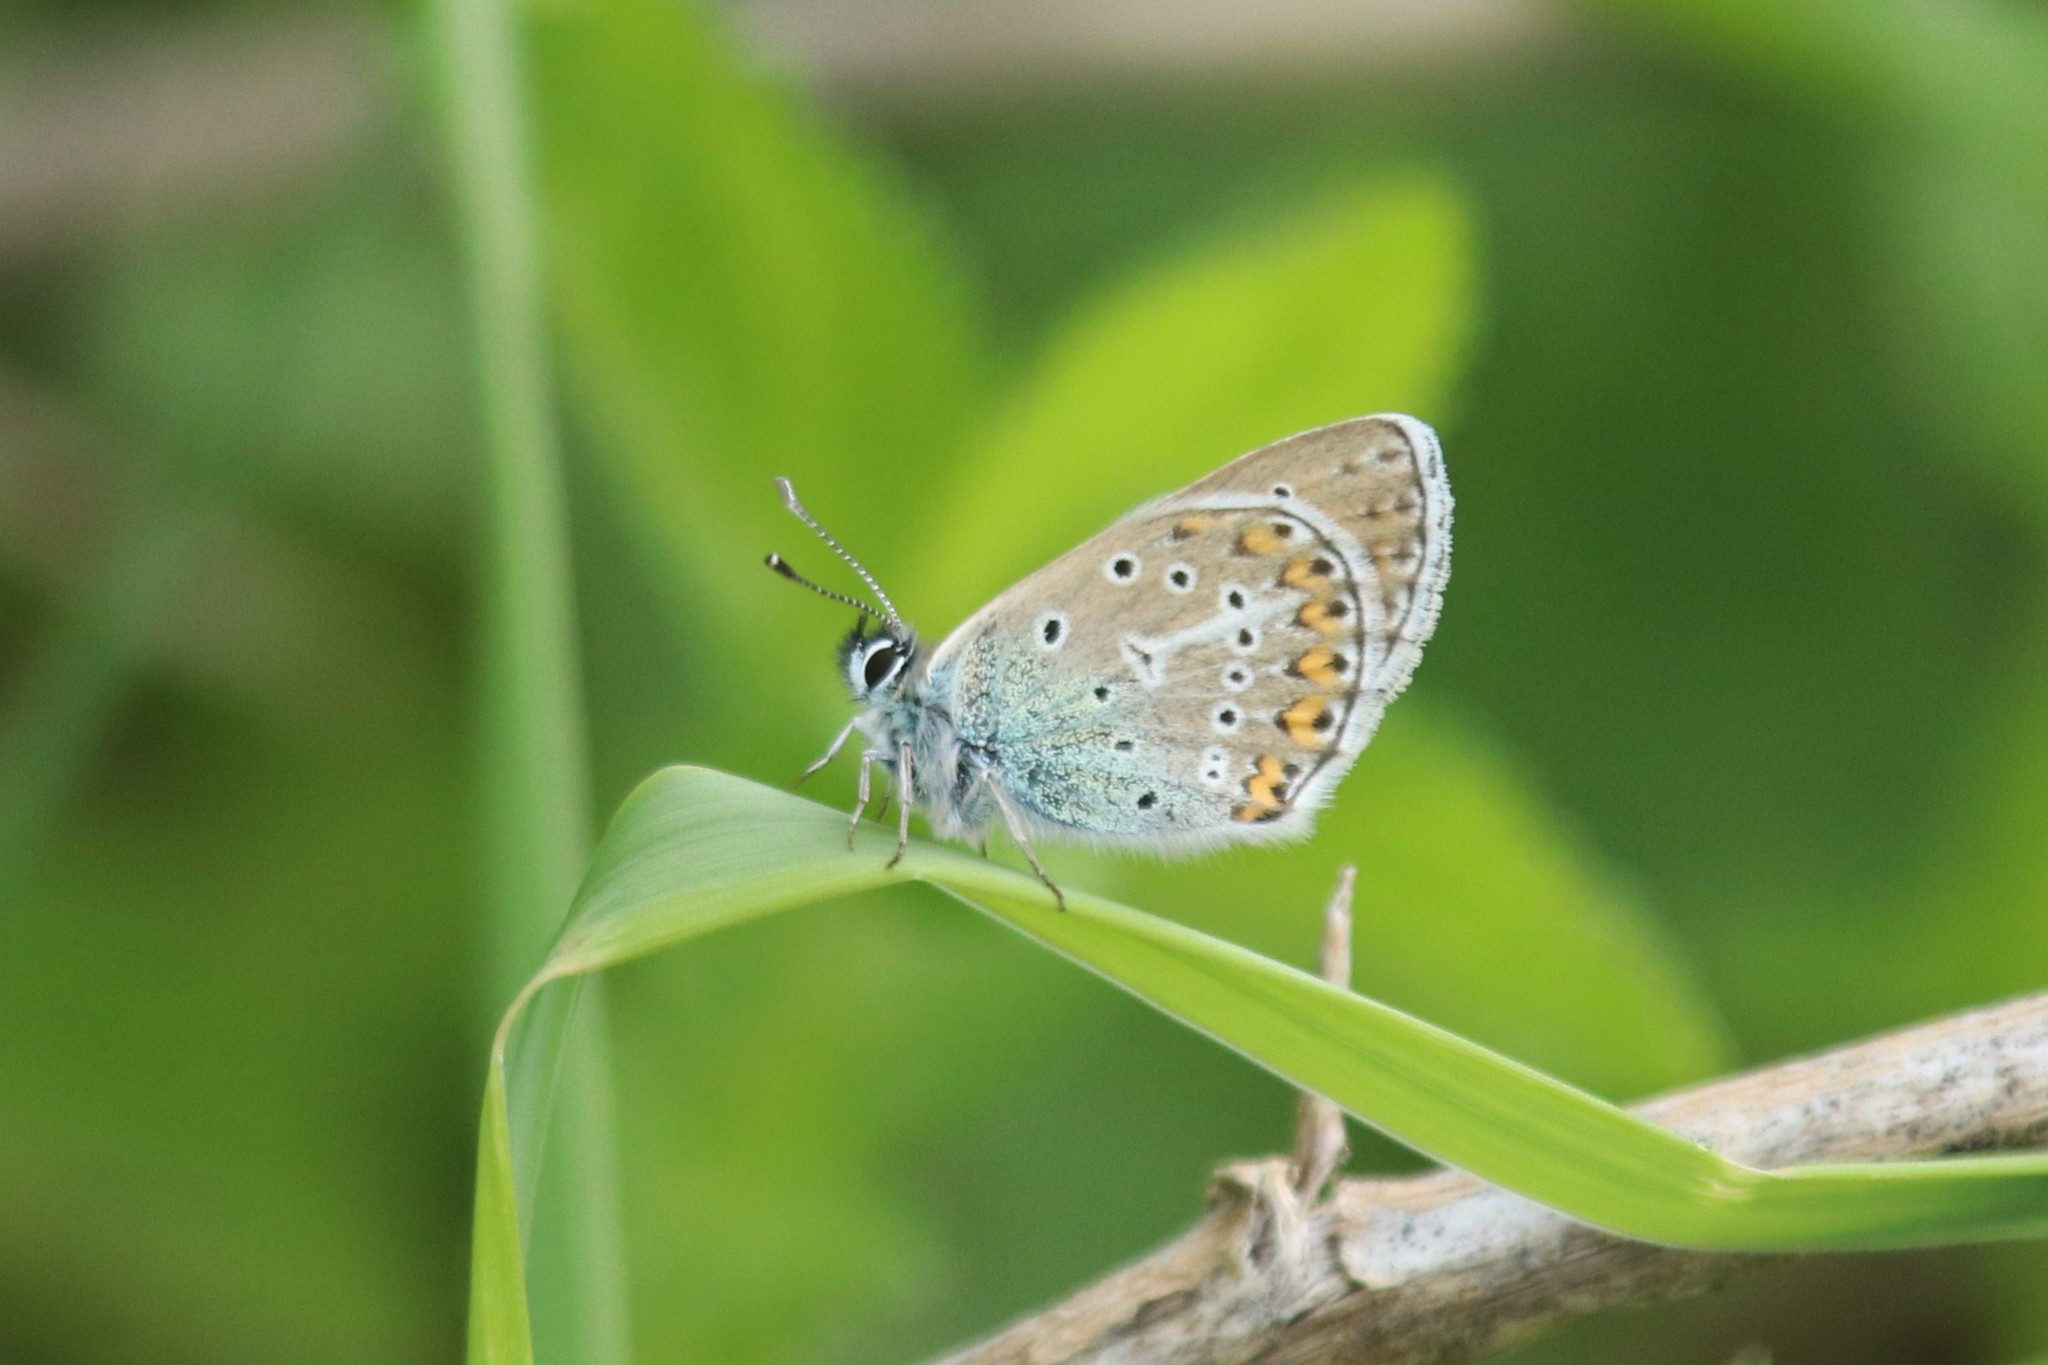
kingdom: Animalia
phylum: Arthropoda
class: Insecta
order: Lepidoptera
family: Lycaenidae
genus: Eumedonia
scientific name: Eumedonia eumedon
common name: Geranium argus
